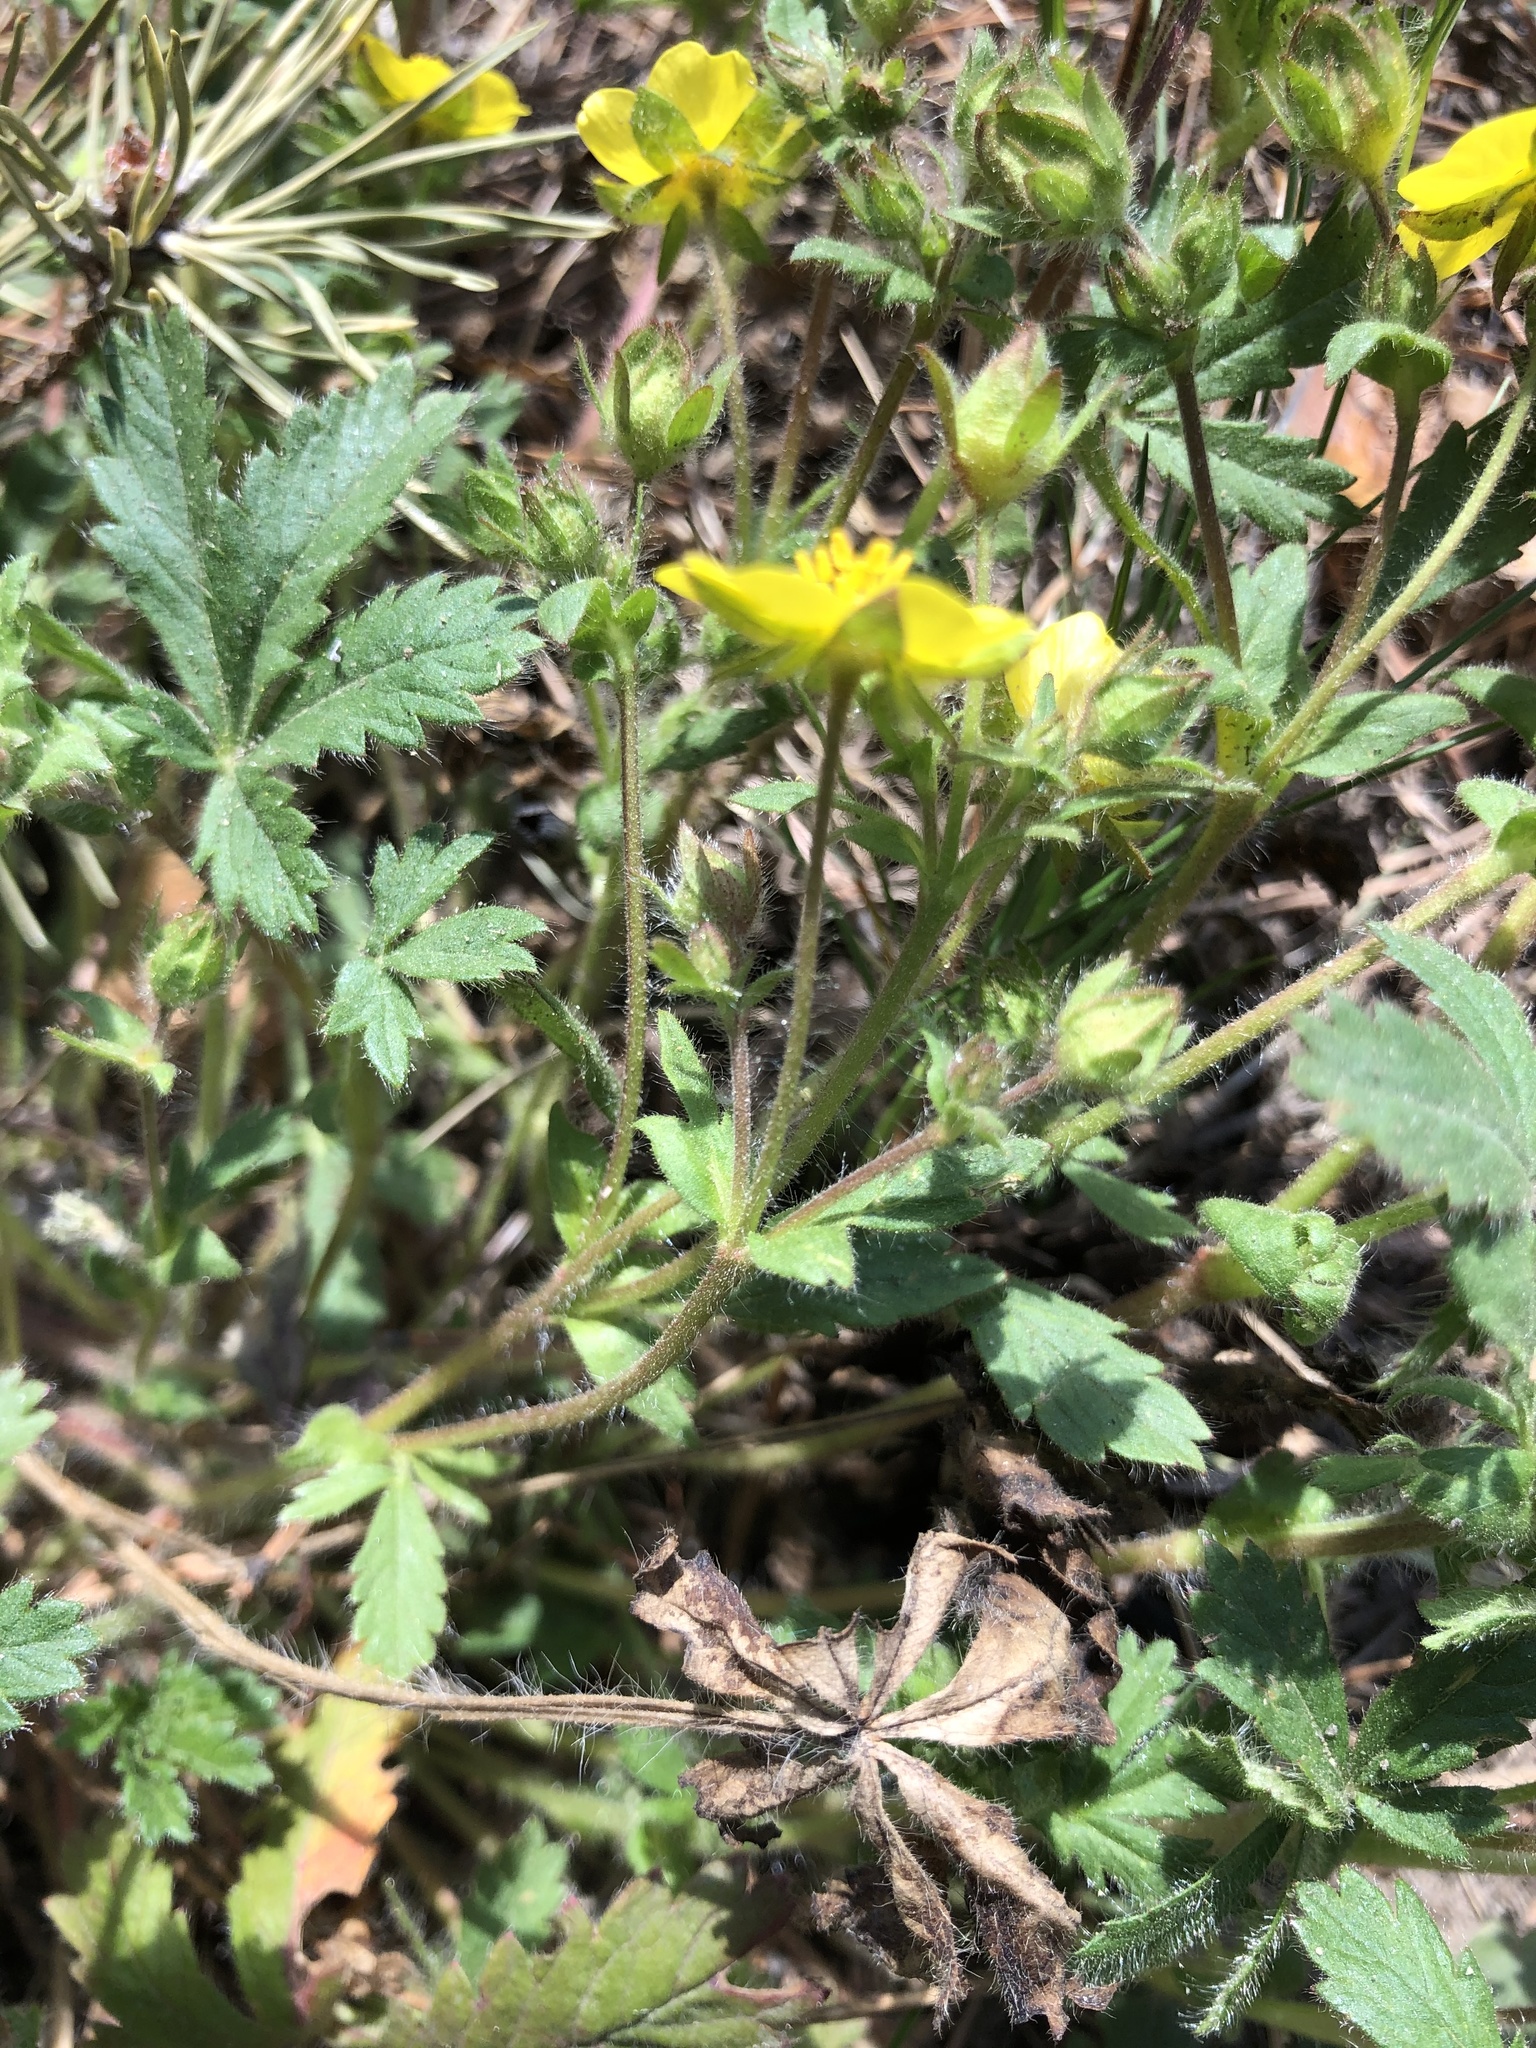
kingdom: Plantae
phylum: Tracheophyta
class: Magnoliopsida
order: Rosales
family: Rosaceae
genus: Potentilla
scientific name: Potentilla humifusa
